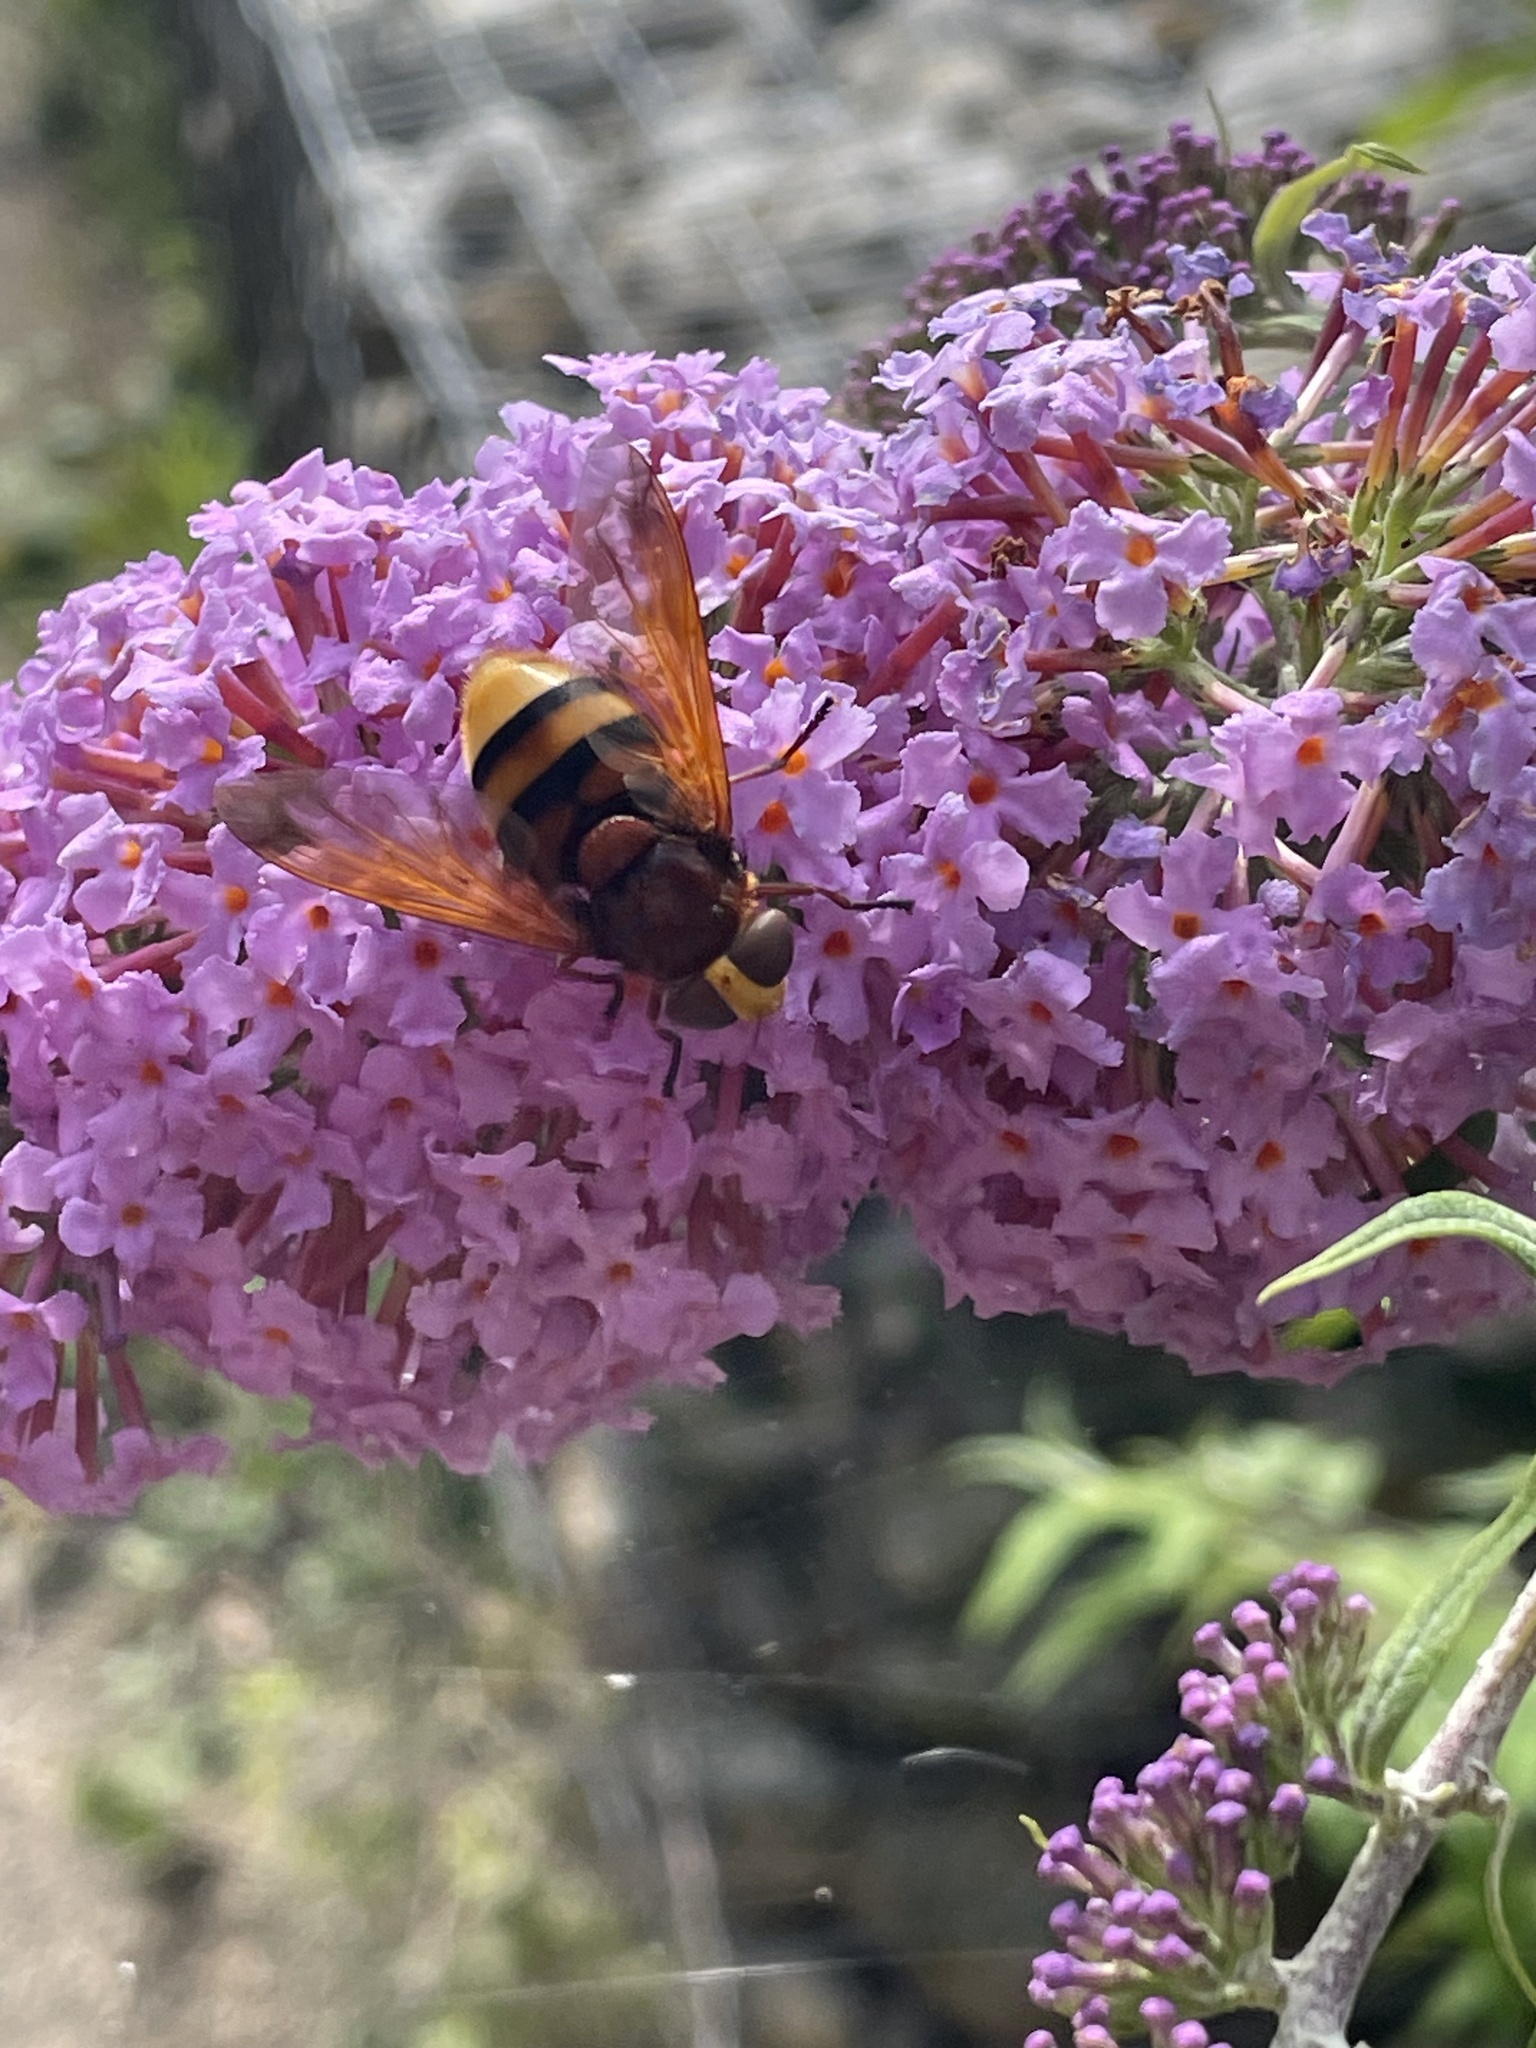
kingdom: Animalia
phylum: Arthropoda
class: Insecta
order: Diptera
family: Syrphidae
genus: Volucella
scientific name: Volucella zonaria
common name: Hornet hoverfly
